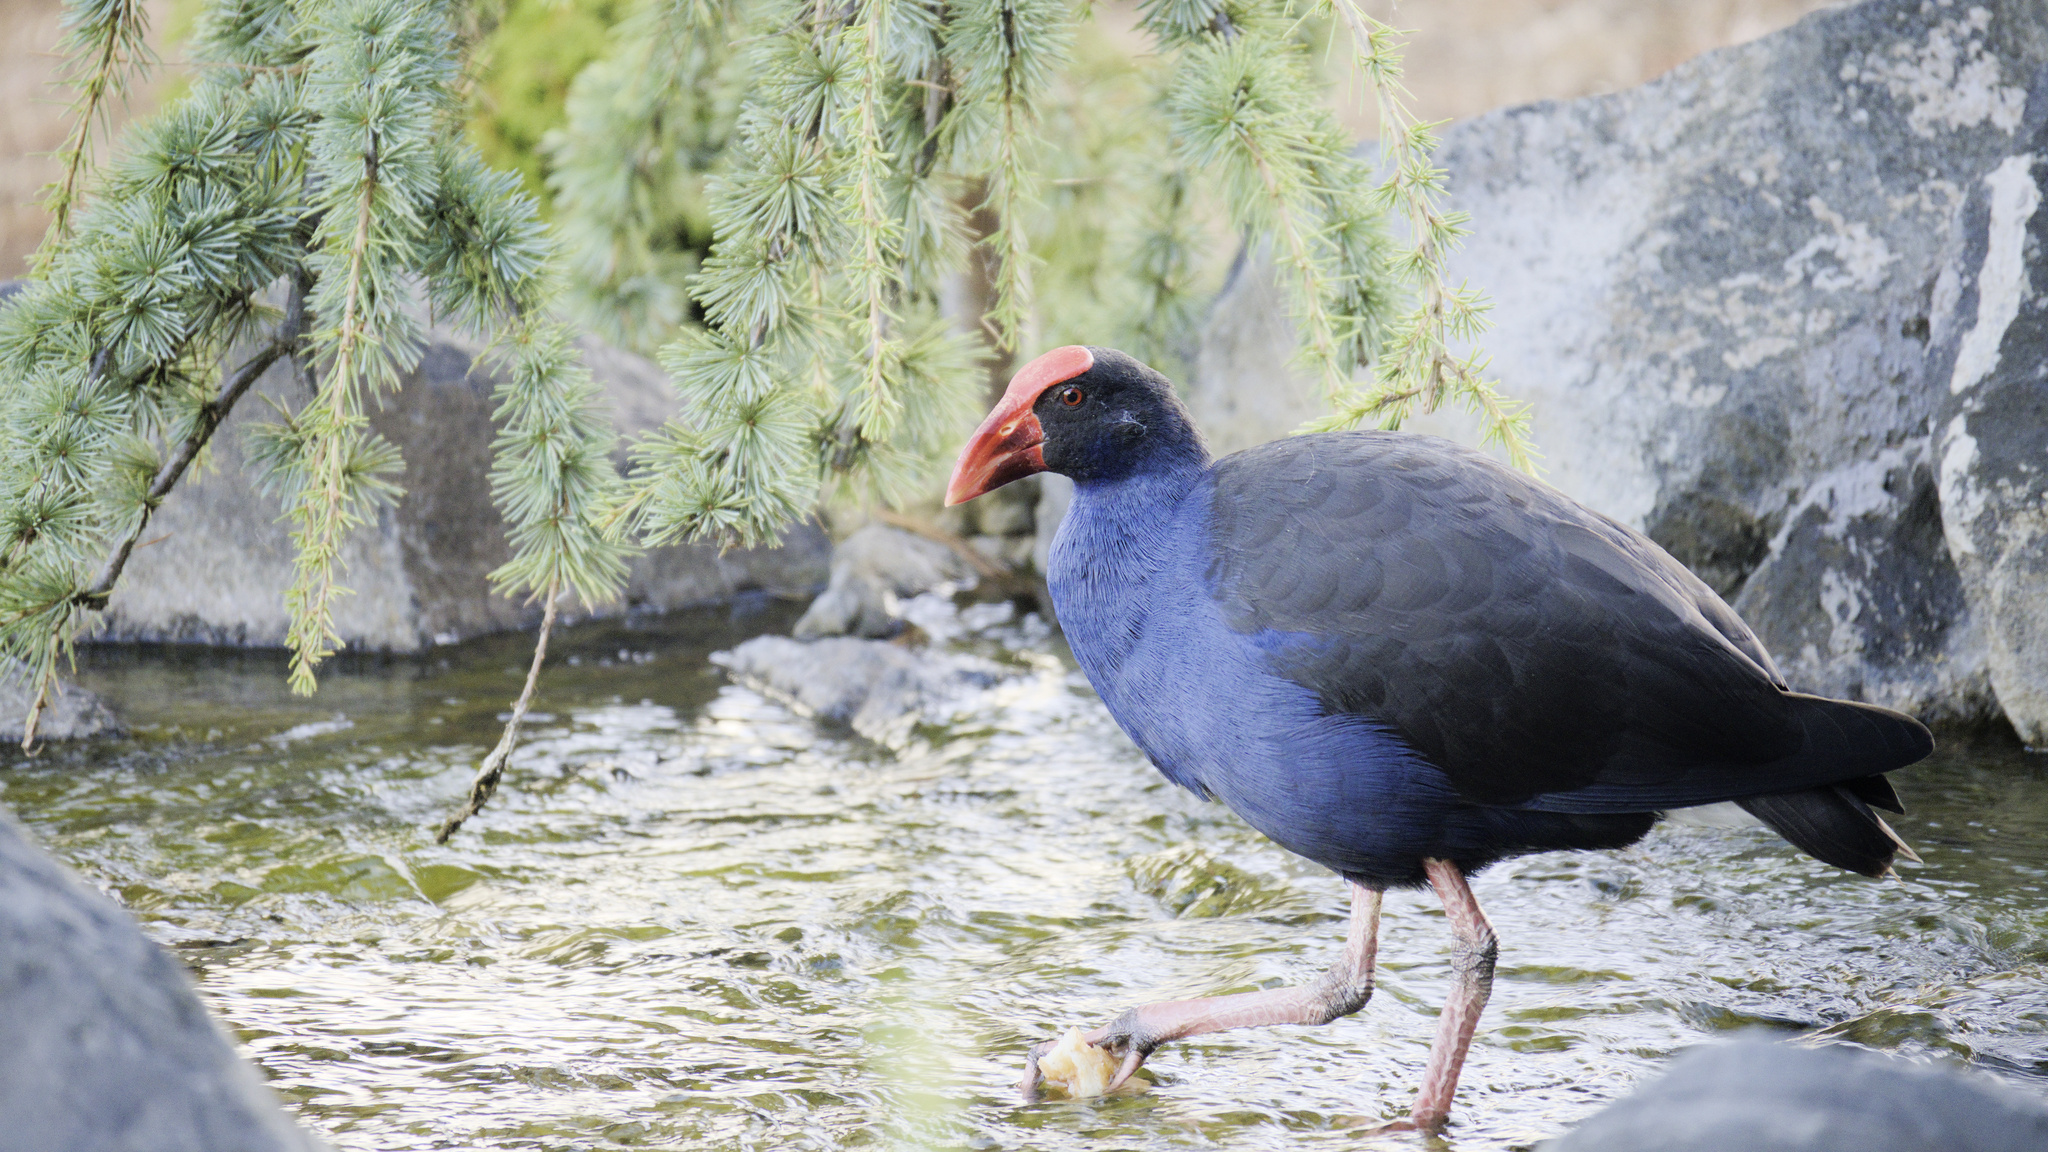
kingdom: Animalia
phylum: Chordata
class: Aves
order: Gruiformes
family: Rallidae
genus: Porphyrio
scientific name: Porphyrio melanotus
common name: Australasian swamphen
